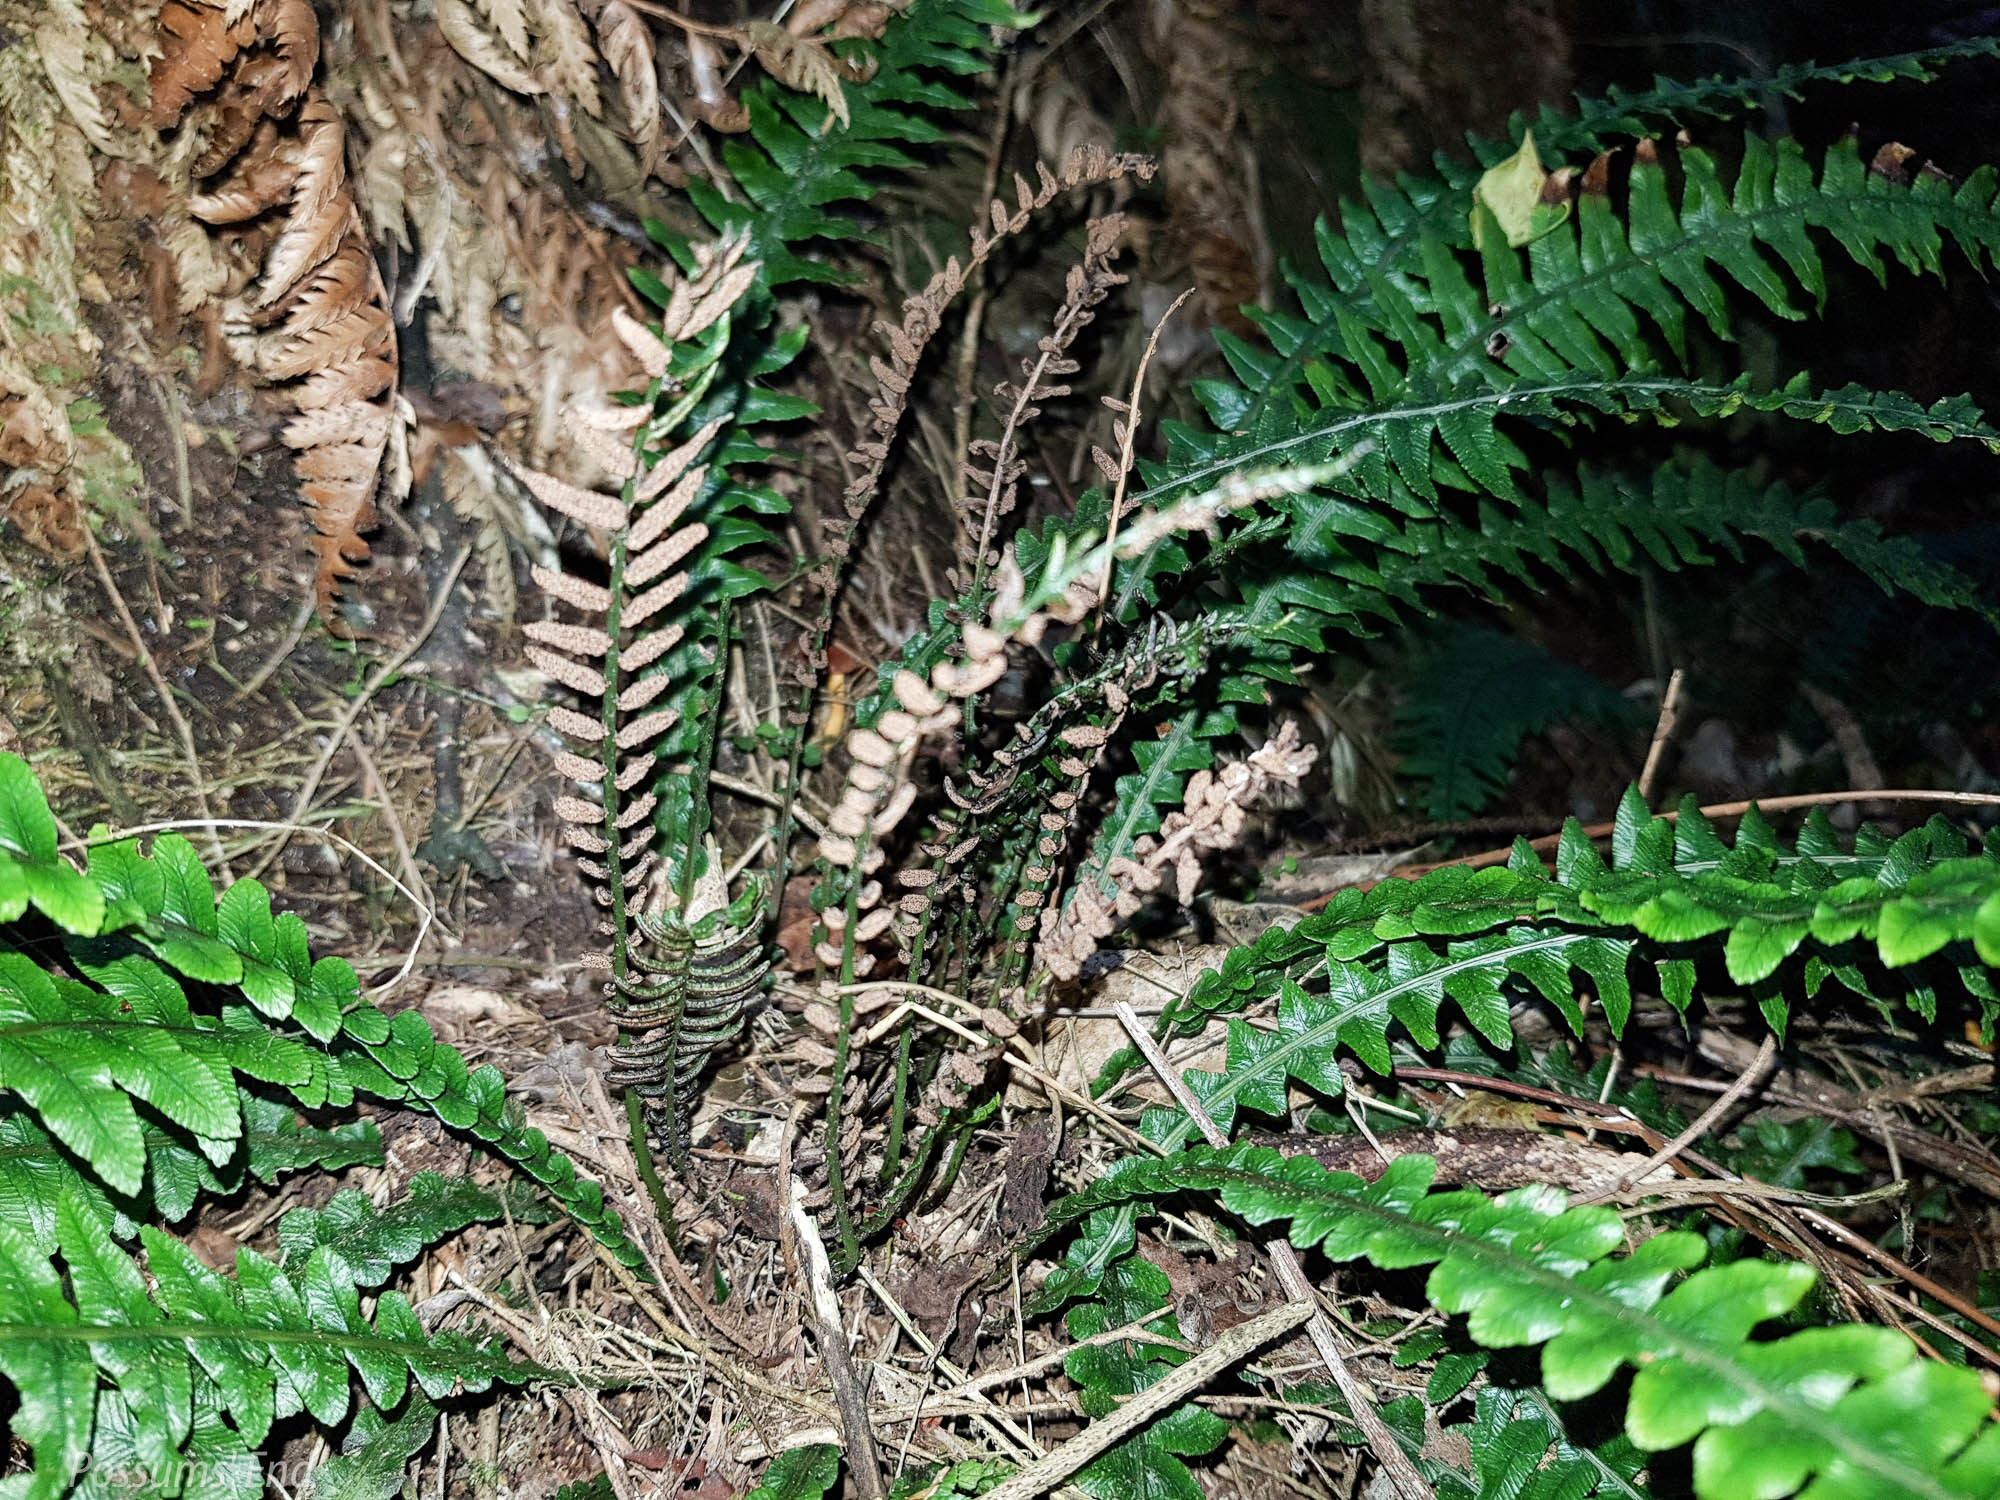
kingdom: Plantae
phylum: Tracheophyta
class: Polypodiopsida
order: Polypodiales
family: Blechnaceae
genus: Austroblechnum
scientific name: Austroblechnum lanceolatum
